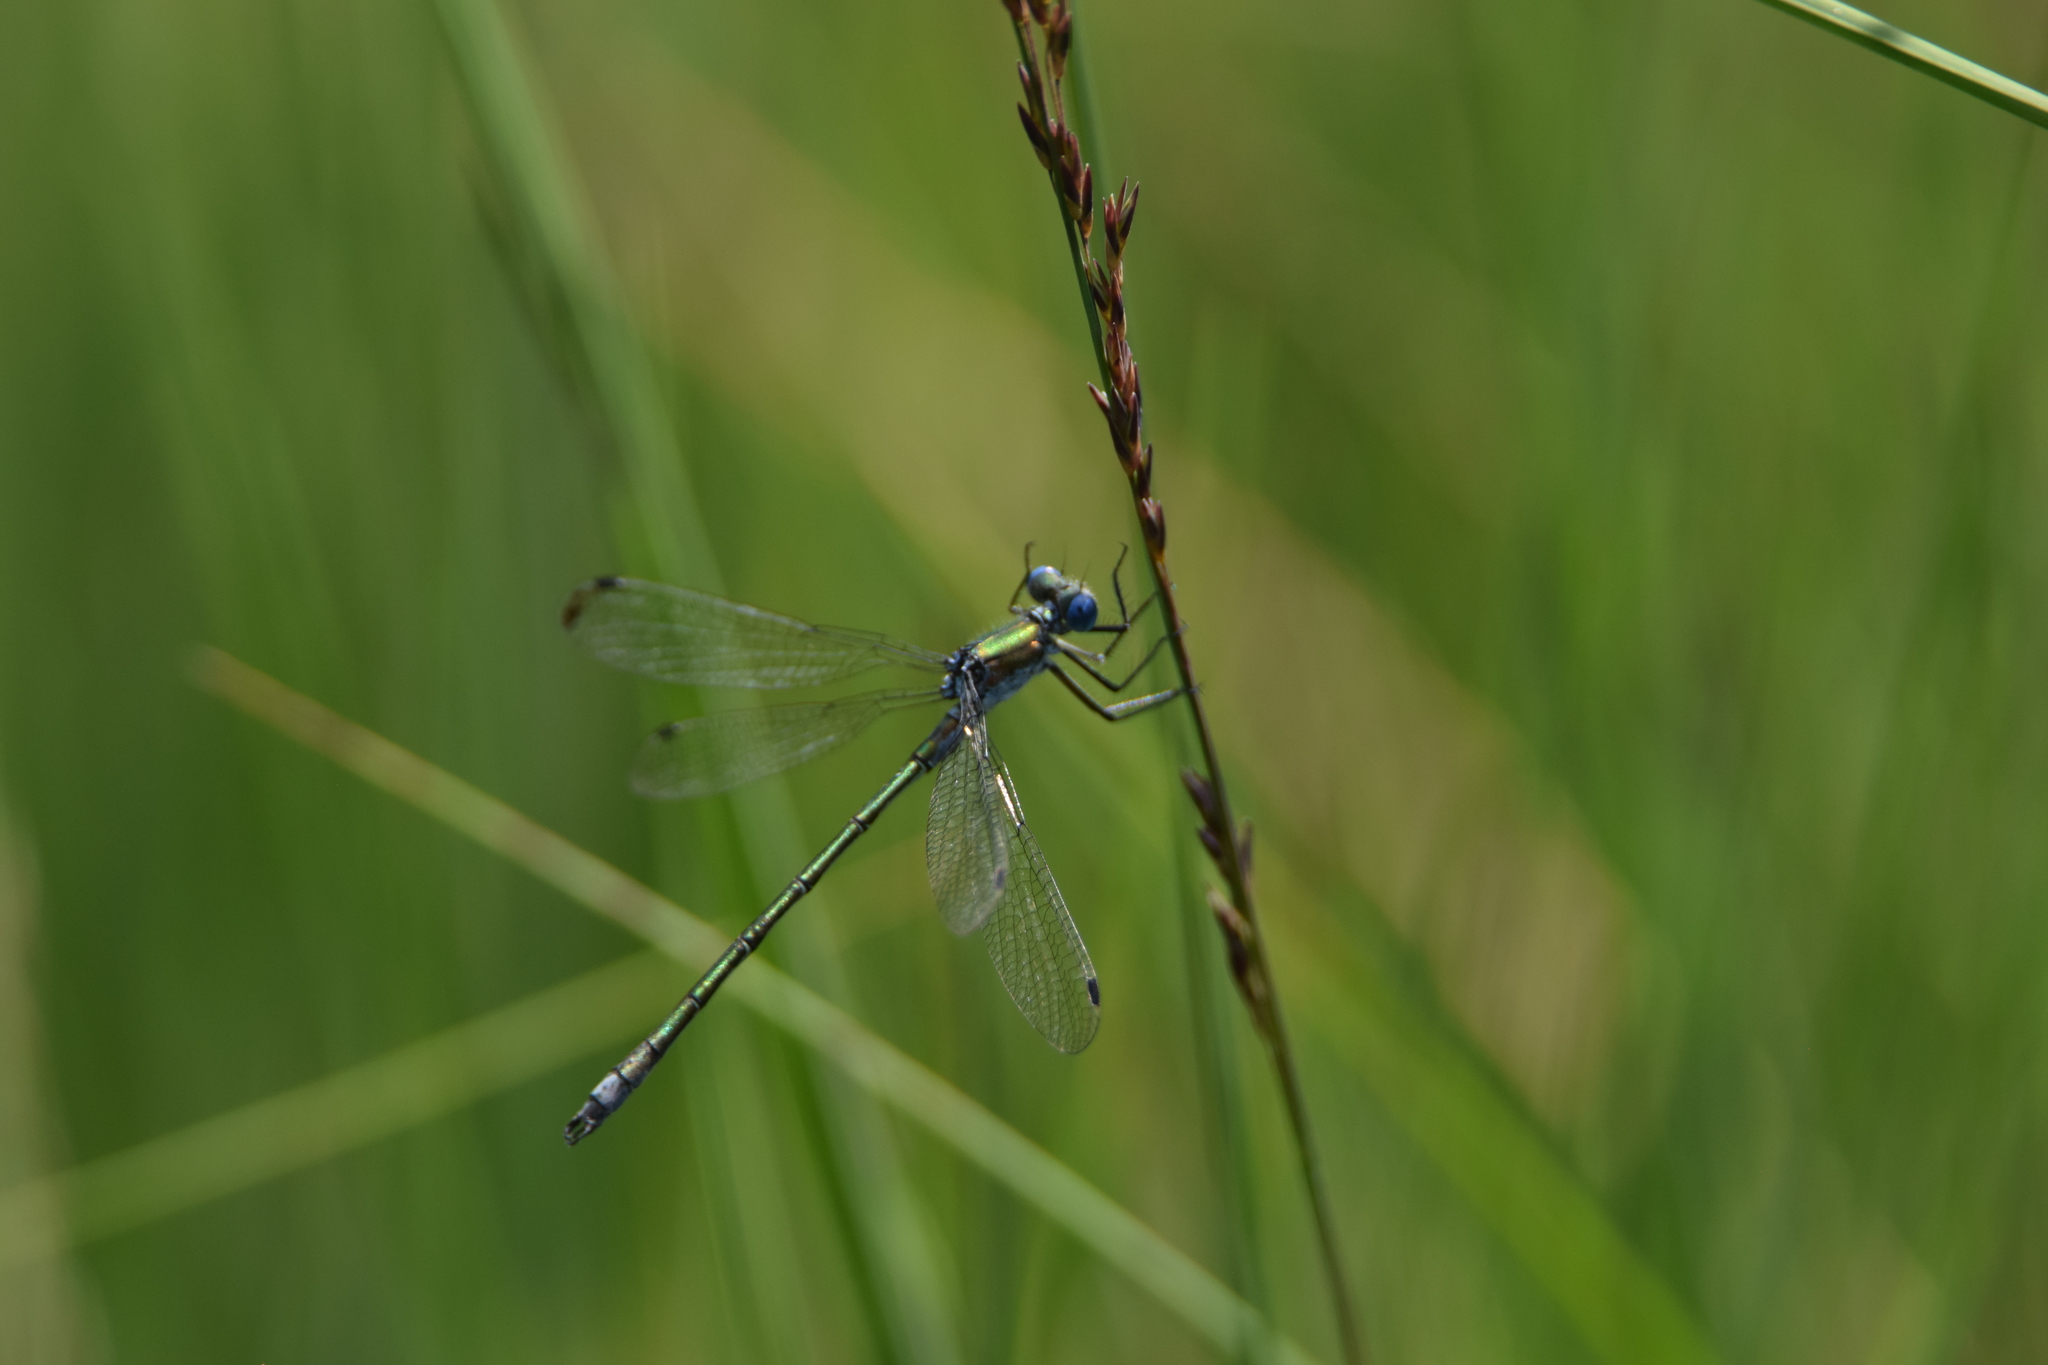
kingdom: Animalia
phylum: Arthropoda
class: Insecta
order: Odonata
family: Lestidae
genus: Lestes
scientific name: Lestes sponsa
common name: Common spreadwing
